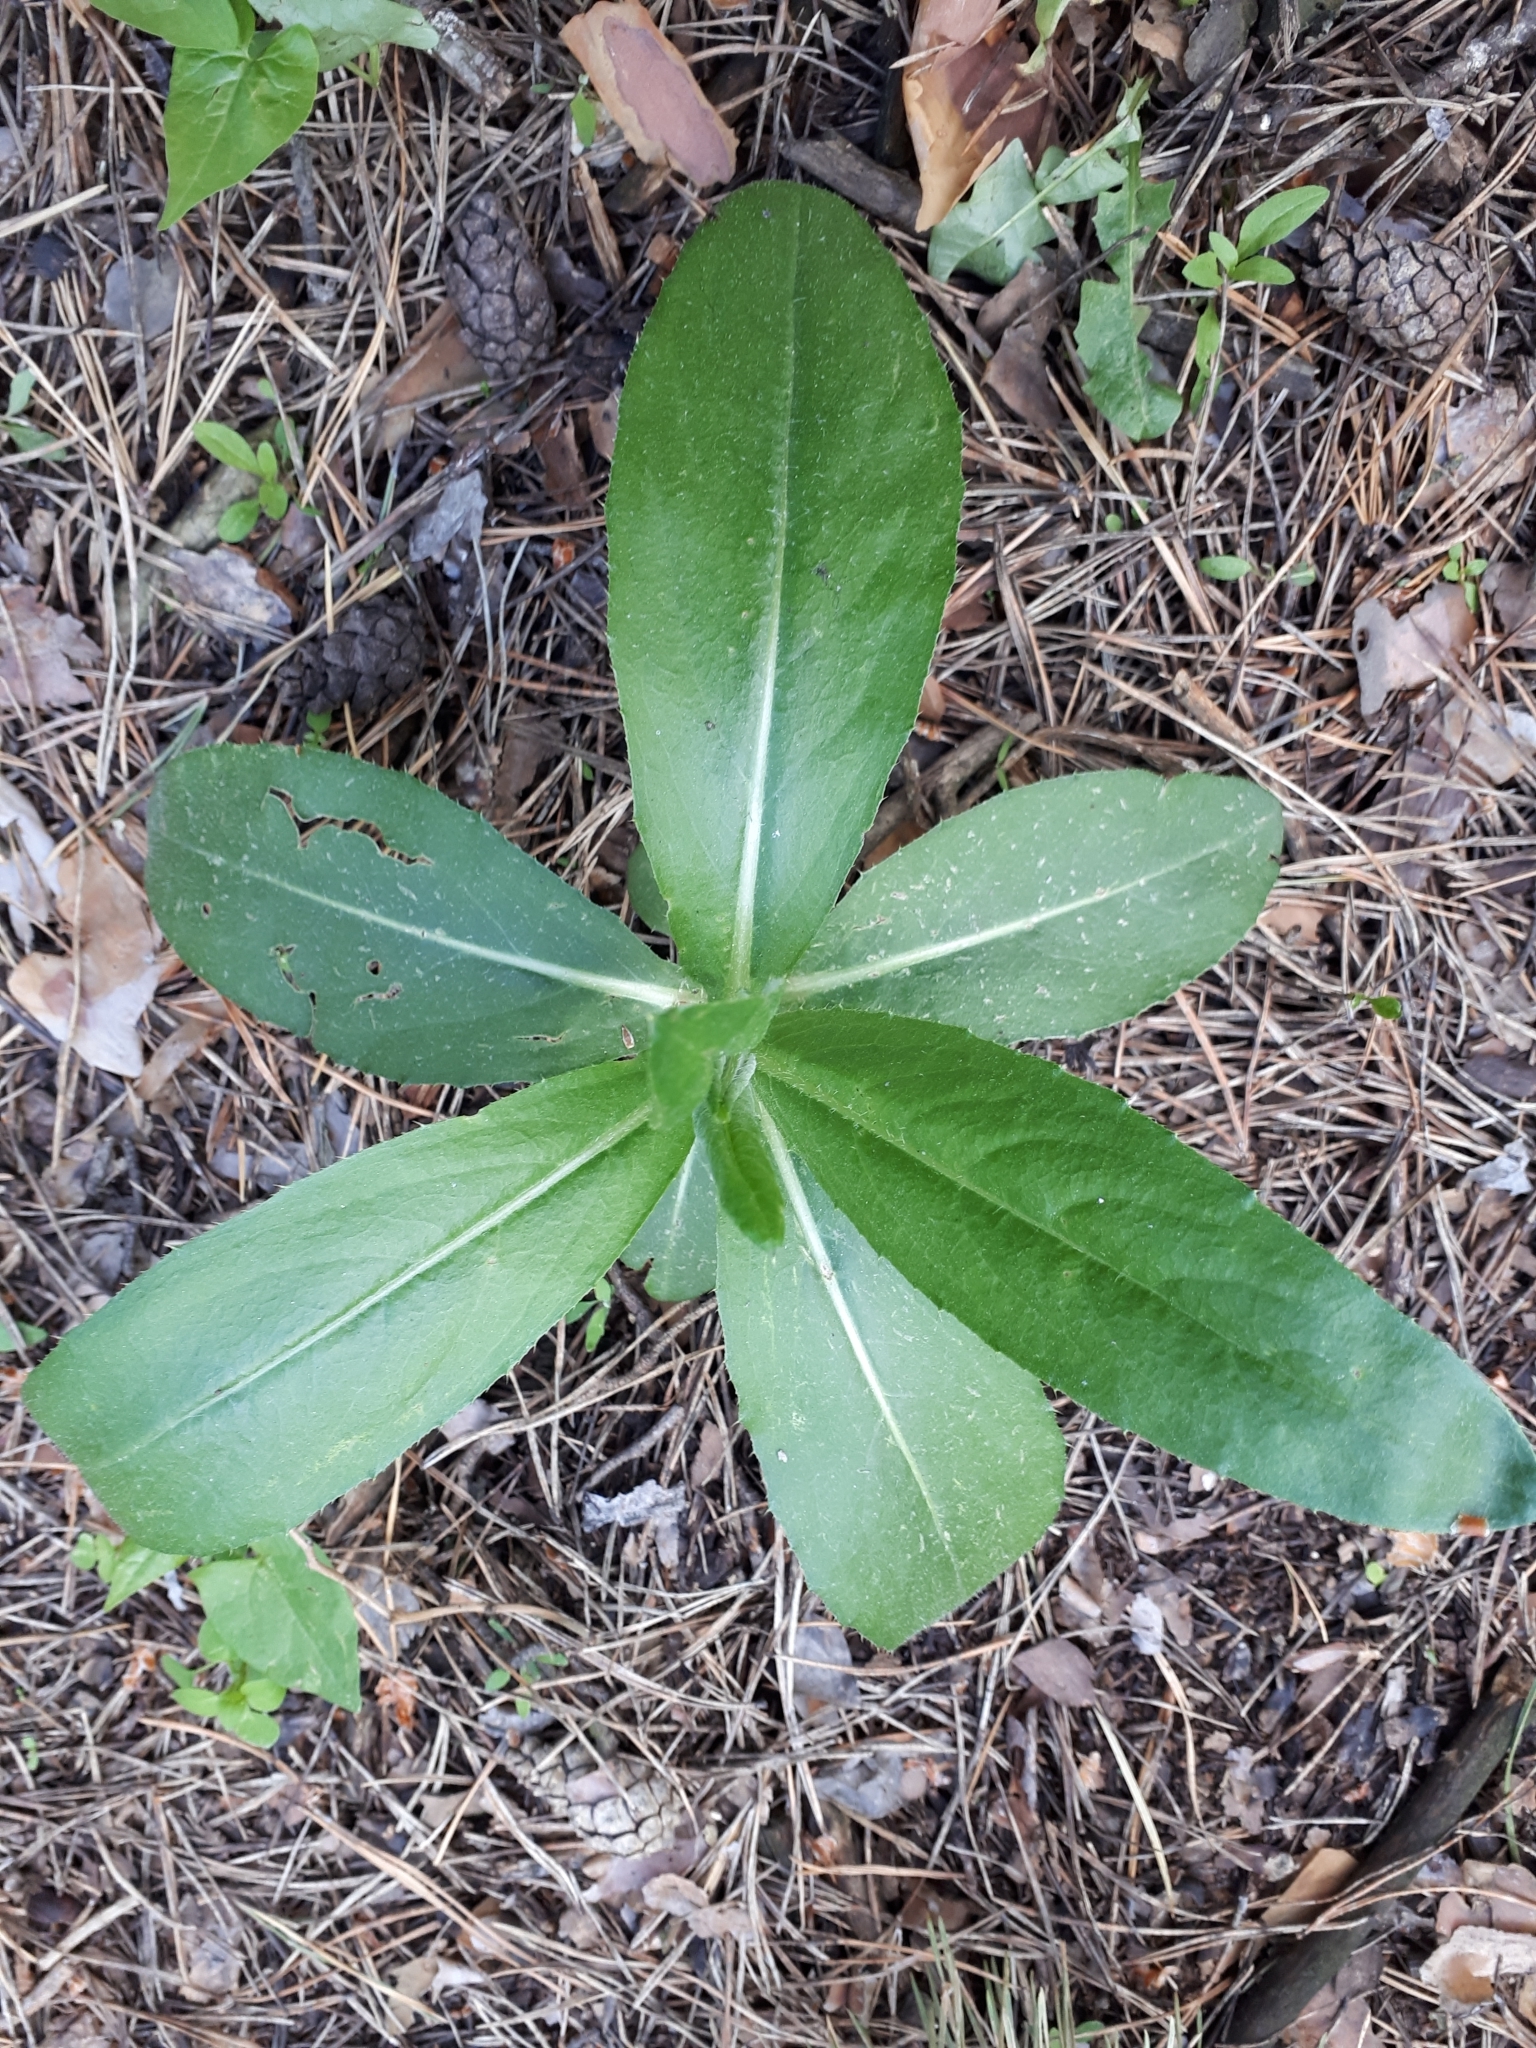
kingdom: Plantae
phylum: Tracheophyta
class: Magnoliopsida
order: Asterales
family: Asteraceae
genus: Cirsium
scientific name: Cirsium arvense
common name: Creeping thistle
